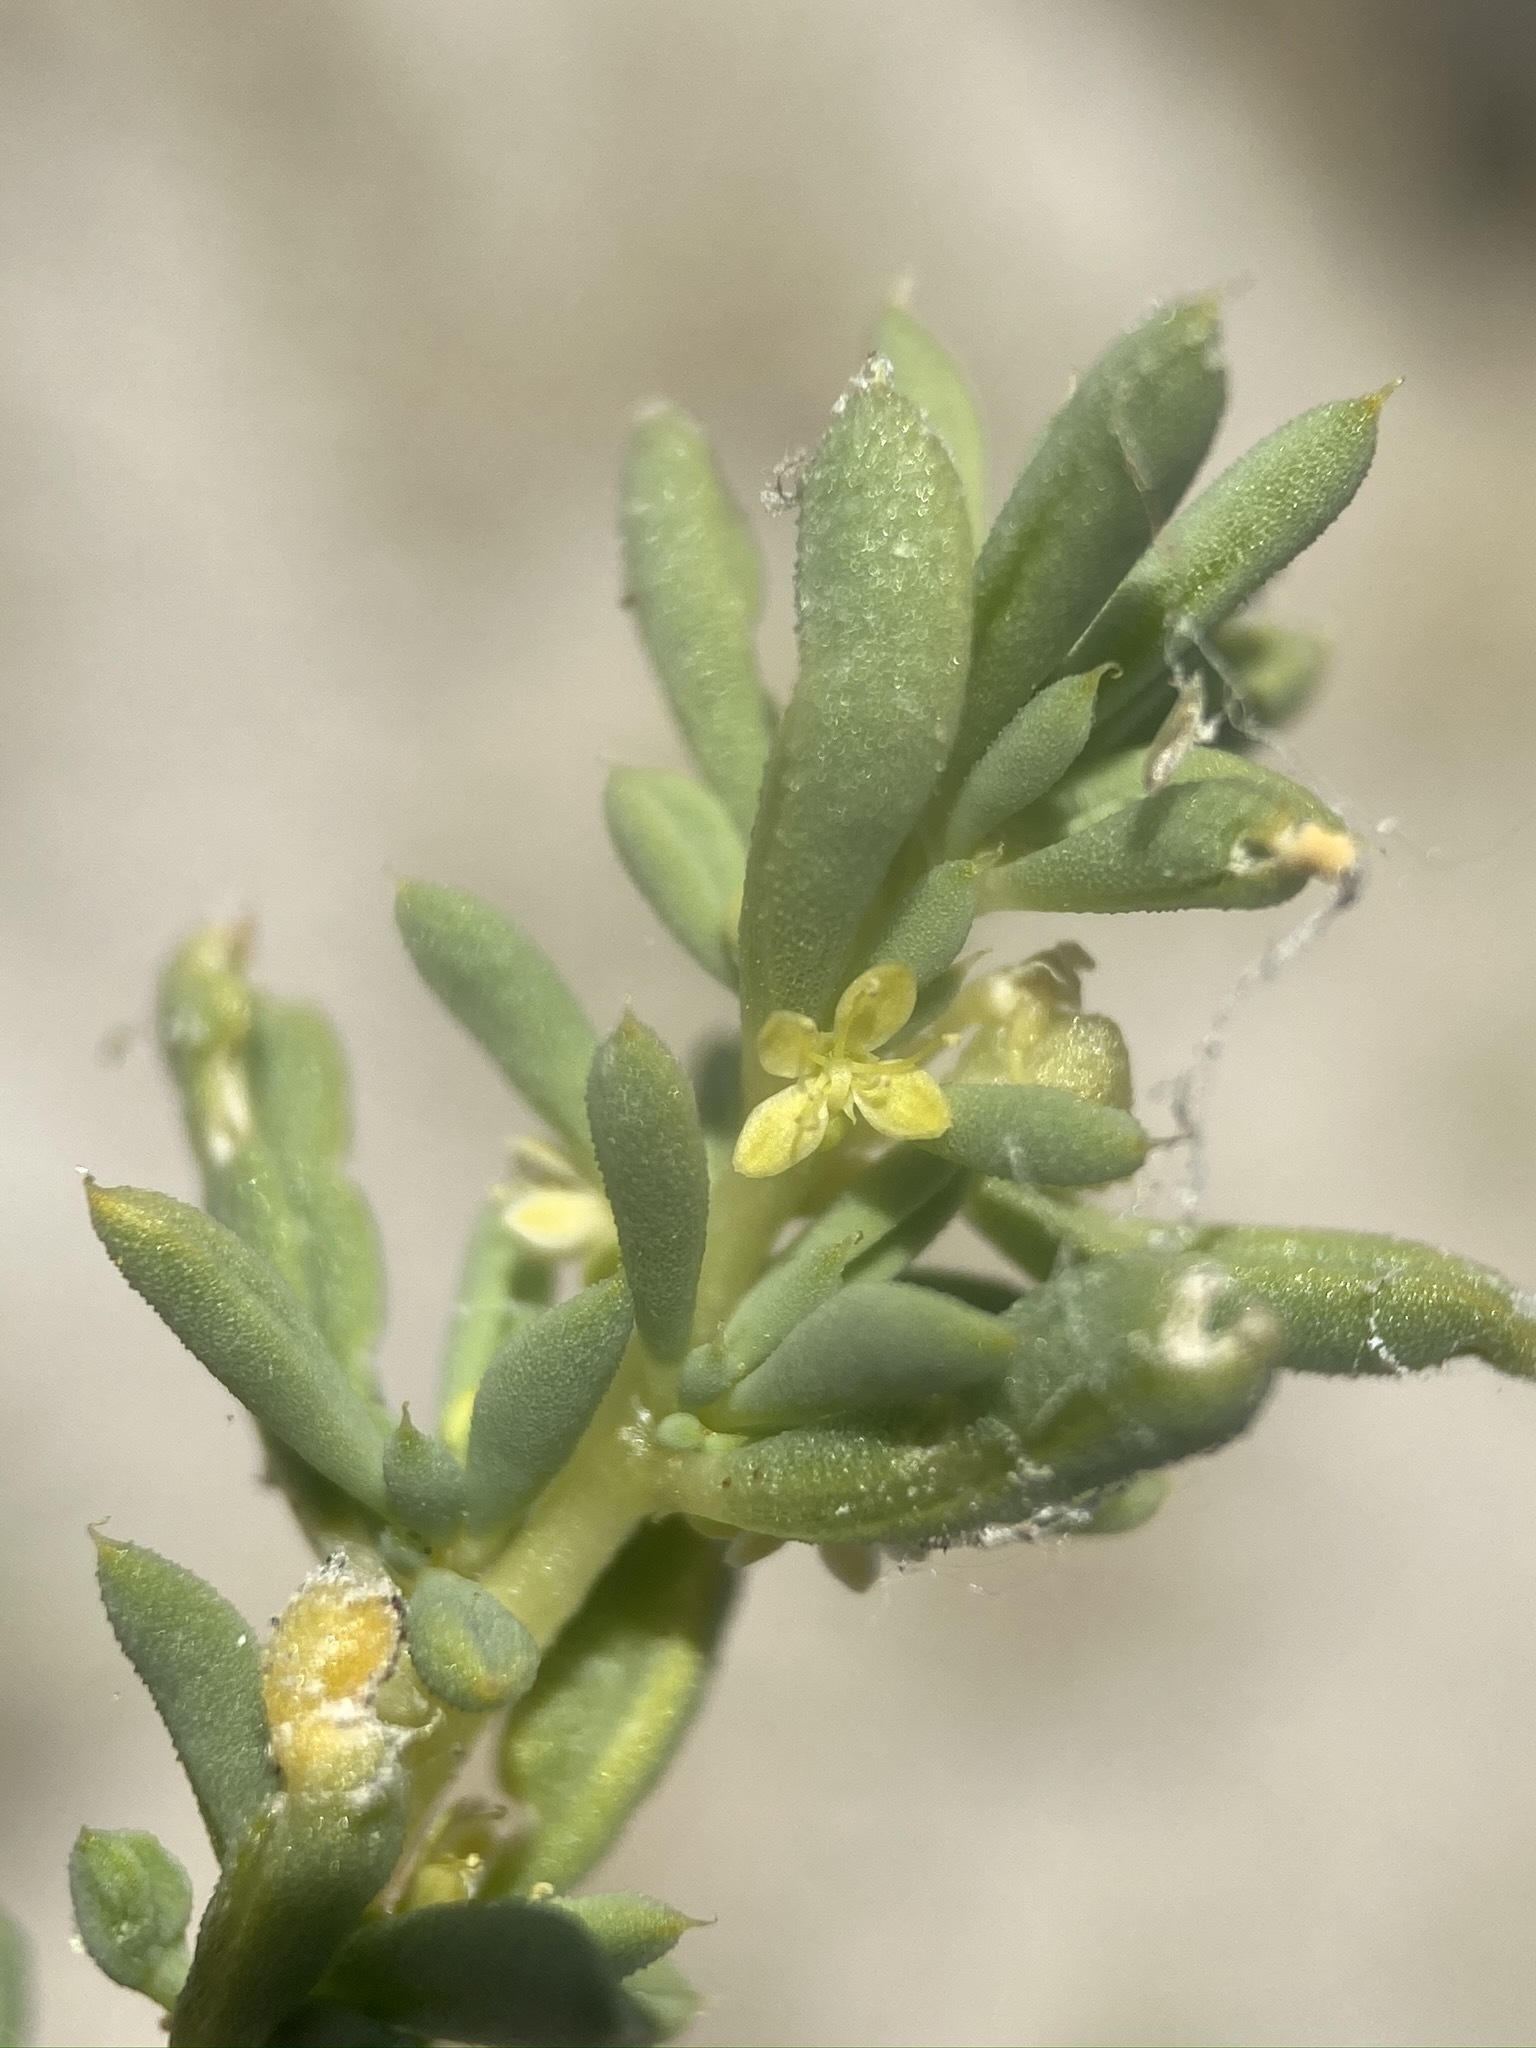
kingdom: Plantae
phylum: Tracheophyta
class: Magnoliopsida
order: Brassicales
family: Cleomaceae
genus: Cleomella
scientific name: Cleomella brevipes
